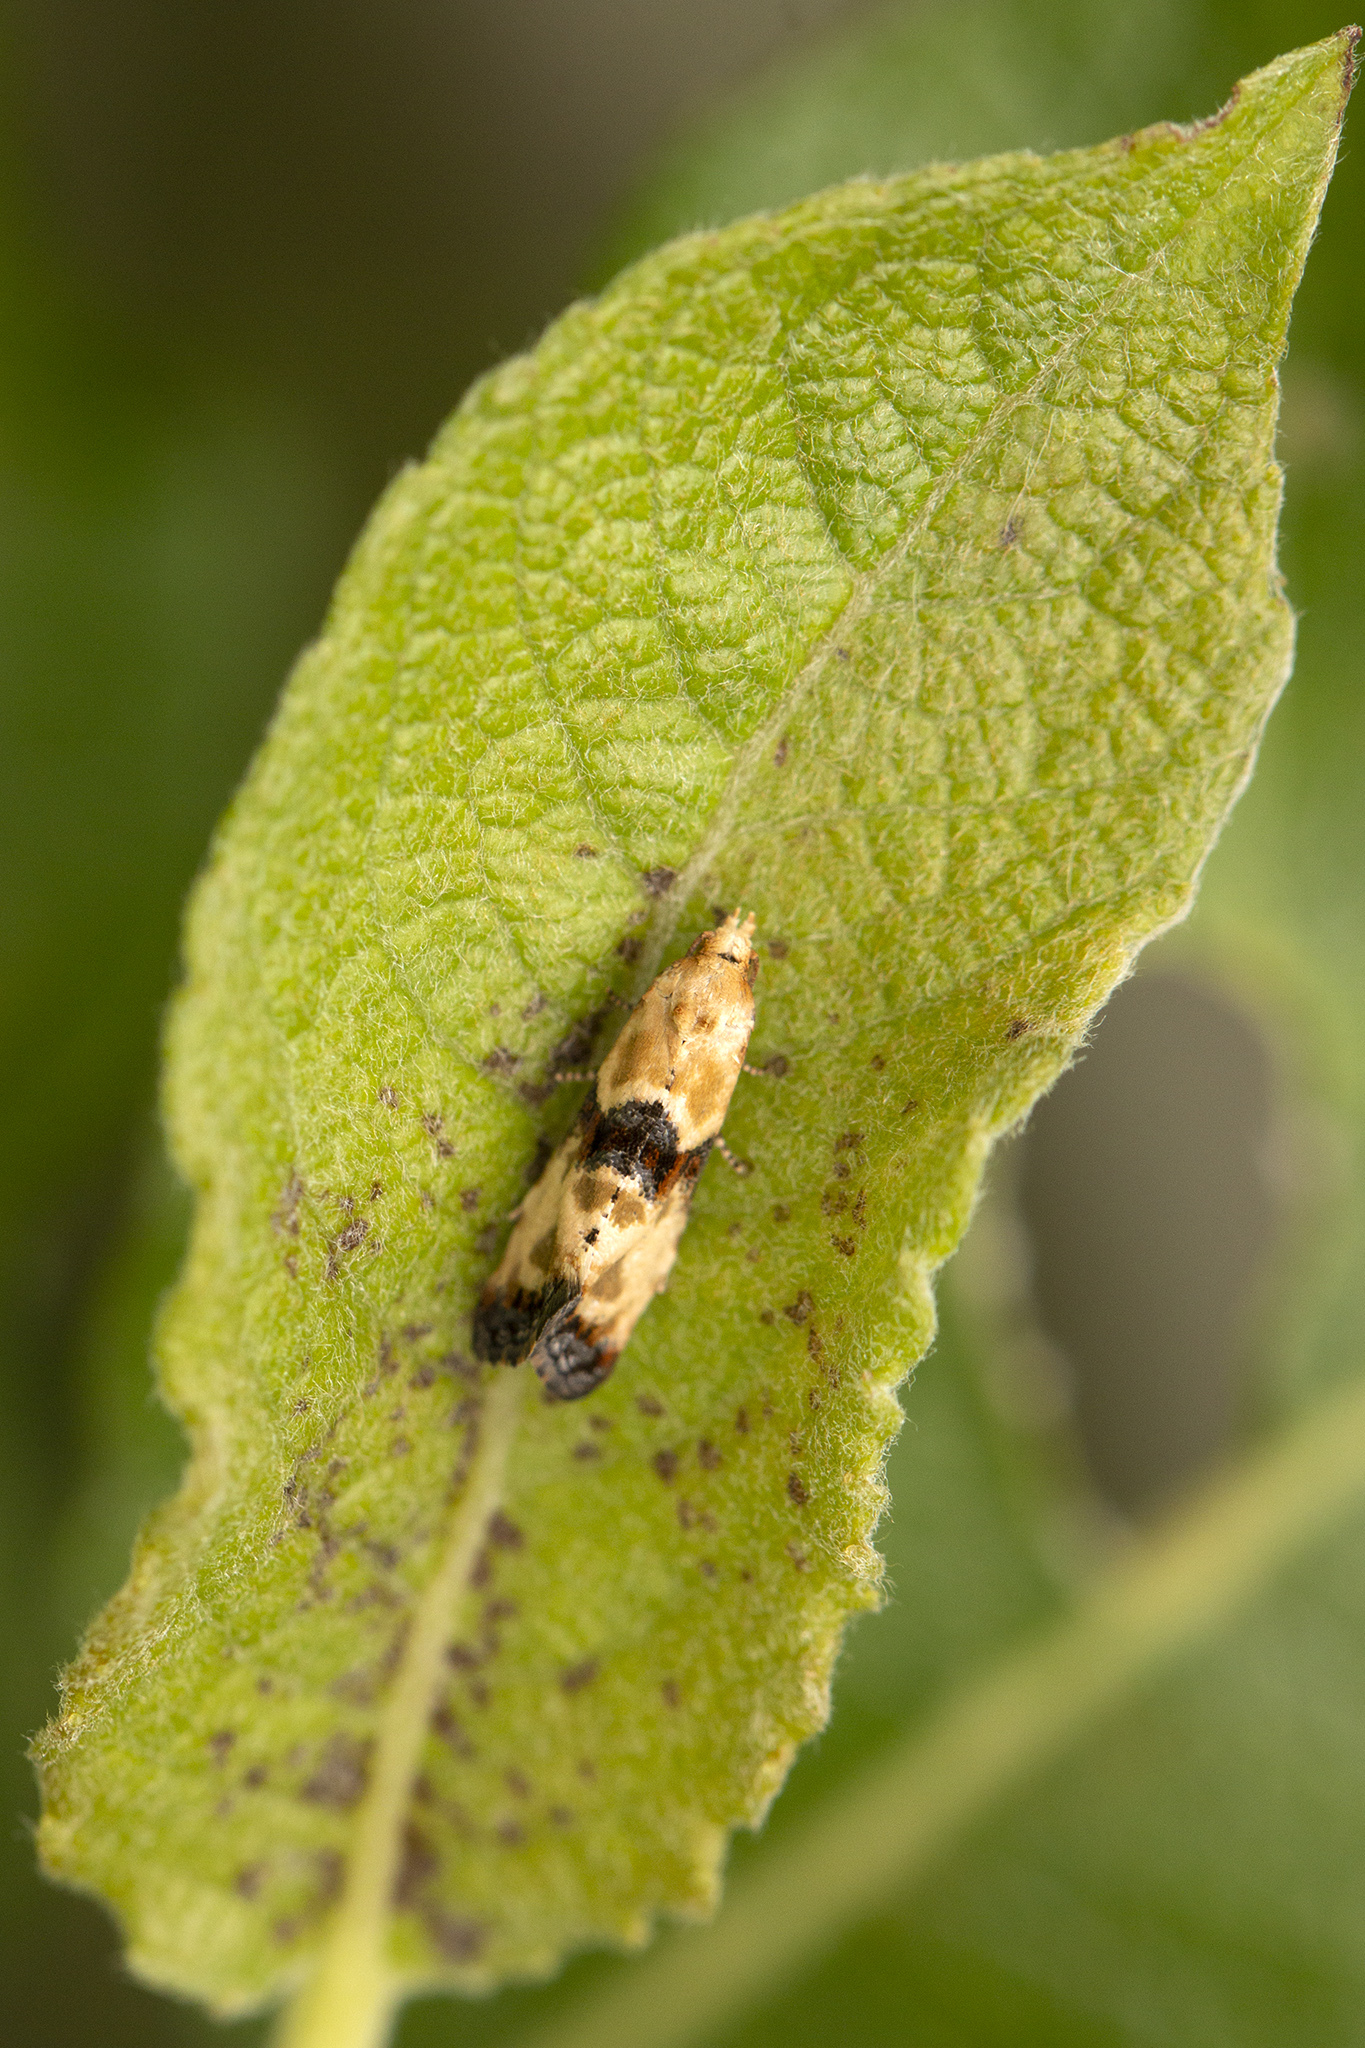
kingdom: Animalia
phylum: Arthropoda
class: Insecta
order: Lepidoptera
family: Tortricidae
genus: Eupoecilia
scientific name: Eupoecilia angustana
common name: Marbled conch
